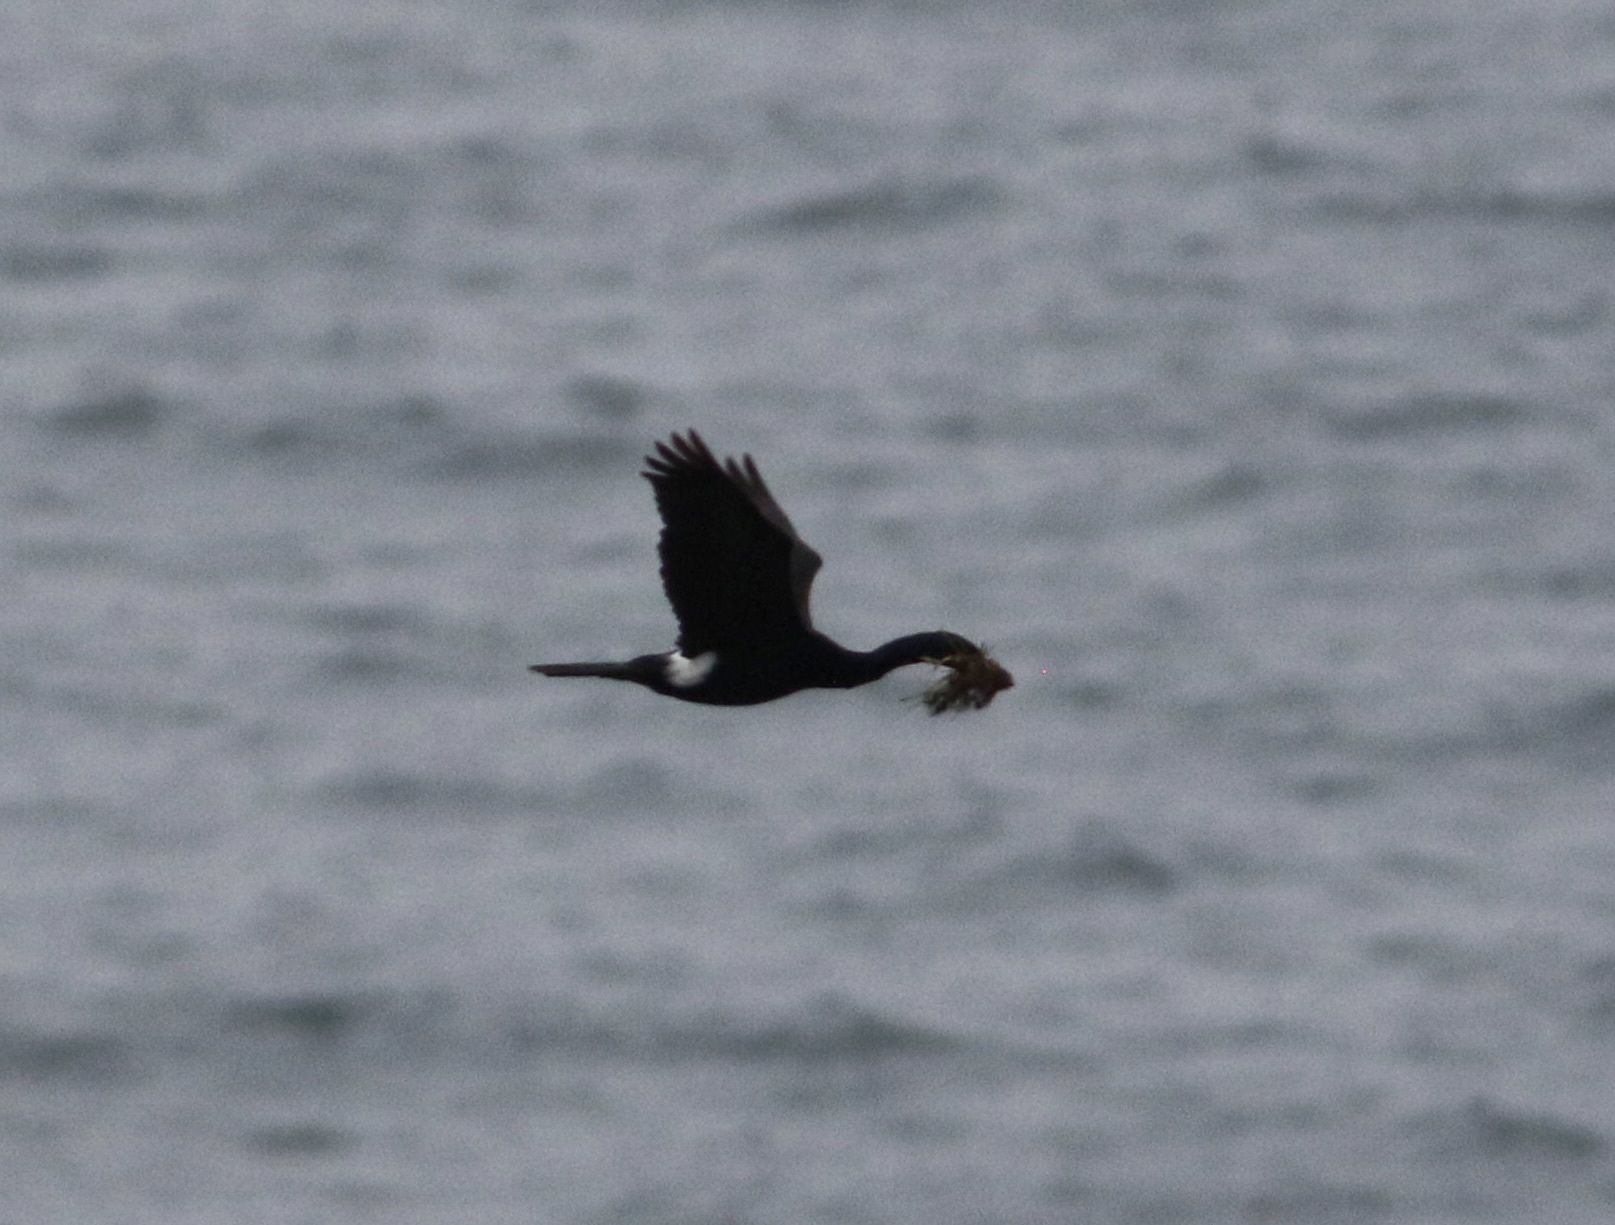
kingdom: Animalia
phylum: Chordata
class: Aves
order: Suliformes
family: Phalacrocoracidae
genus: Phalacrocorax
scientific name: Phalacrocorax pelagicus
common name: Pelagic cormorant
